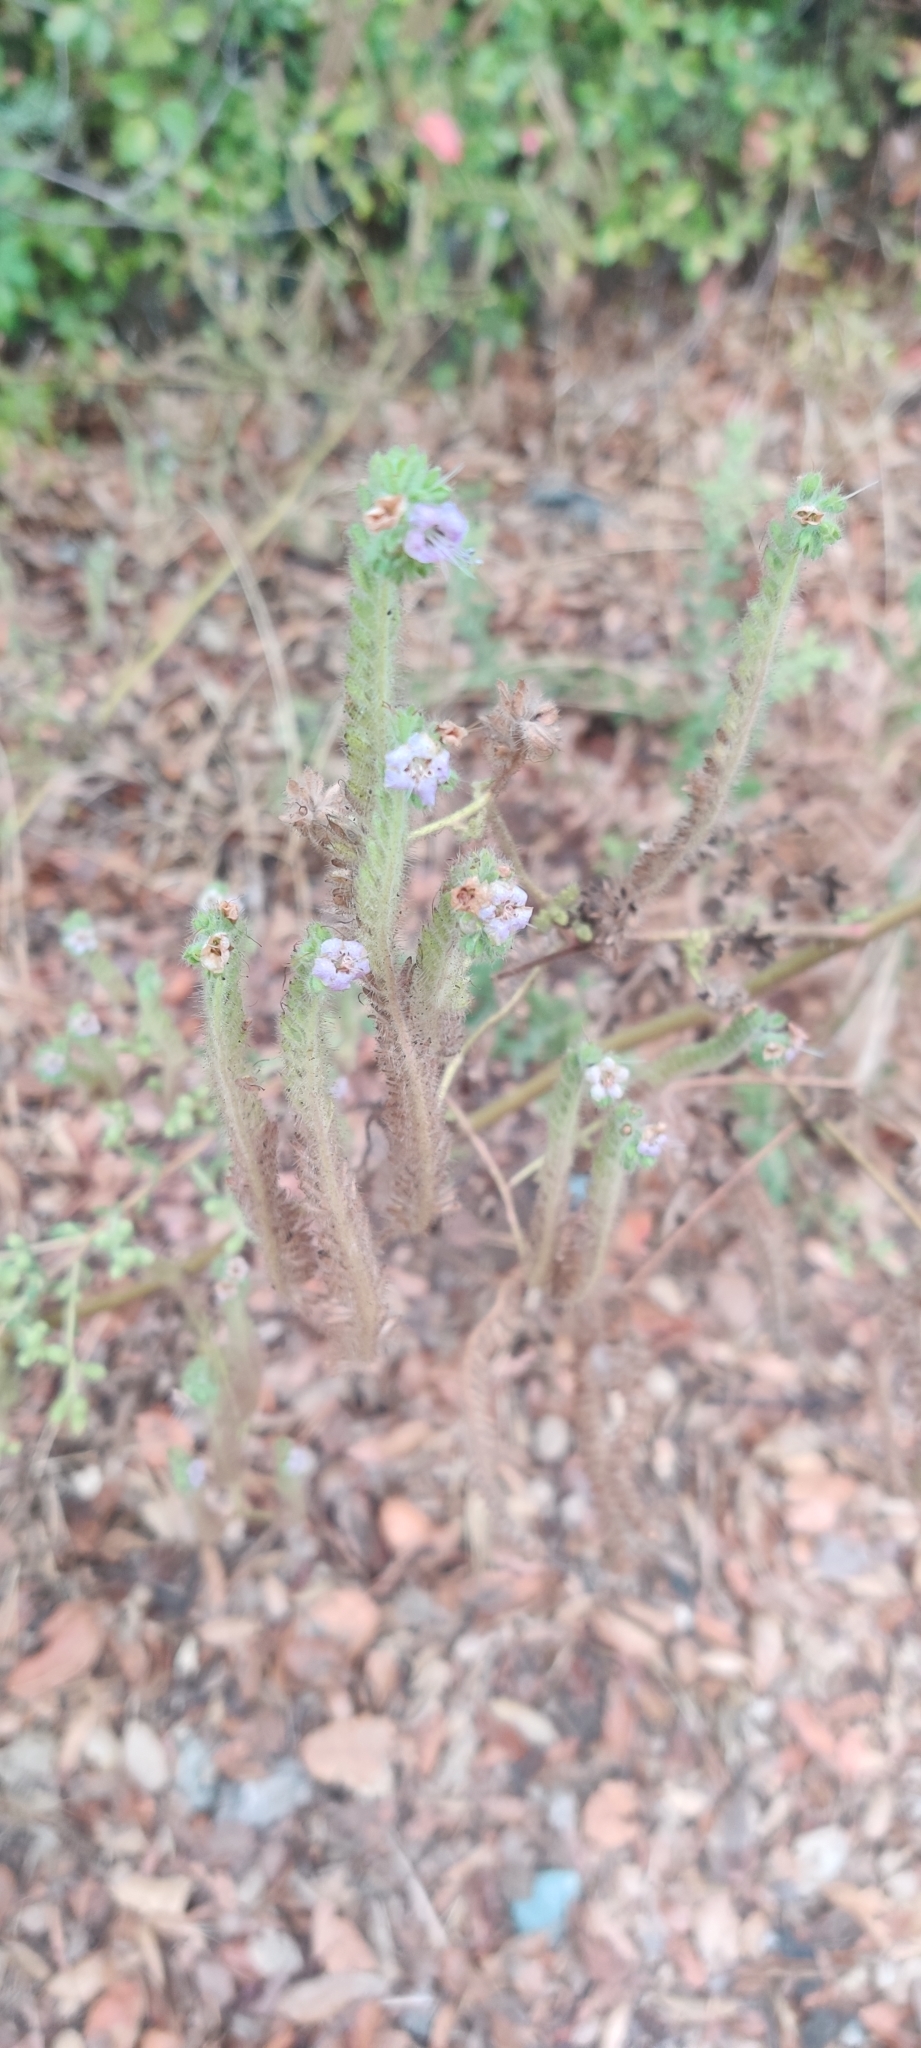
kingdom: Plantae
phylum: Tracheophyta
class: Magnoliopsida
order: Boraginales
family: Hydrophyllaceae
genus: Phacelia
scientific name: Phacelia ramosissima
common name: Branching phacelia
